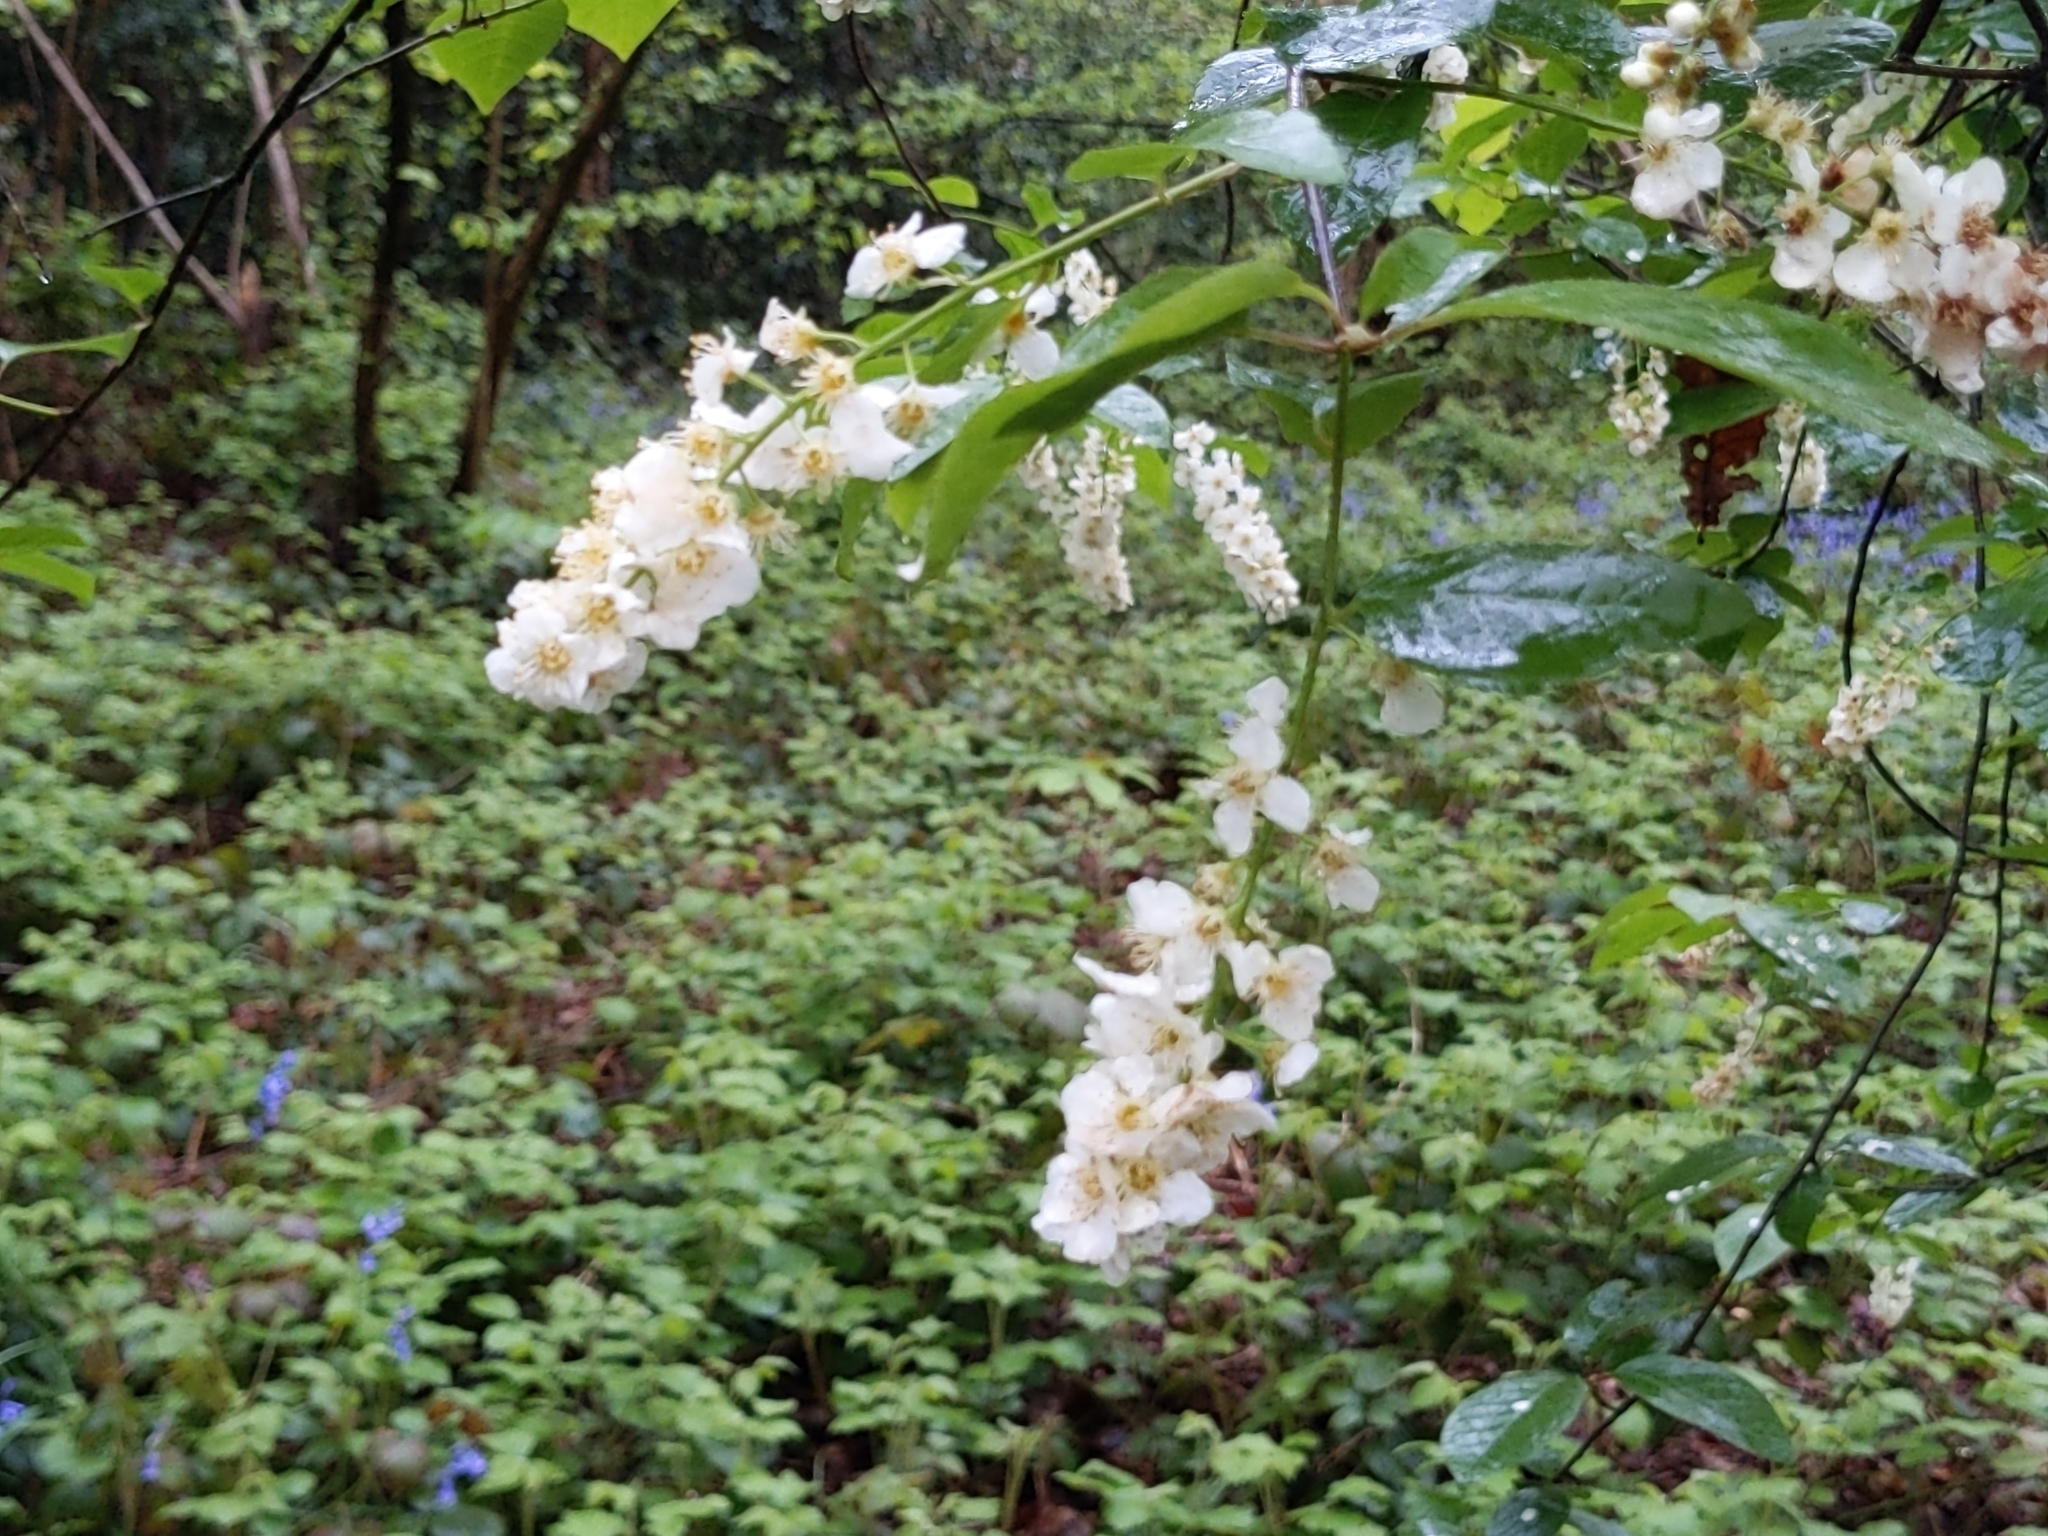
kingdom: Plantae
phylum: Tracheophyta
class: Magnoliopsida
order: Rosales
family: Rosaceae
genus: Prunus
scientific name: Prunus padus
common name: Bird cherry
